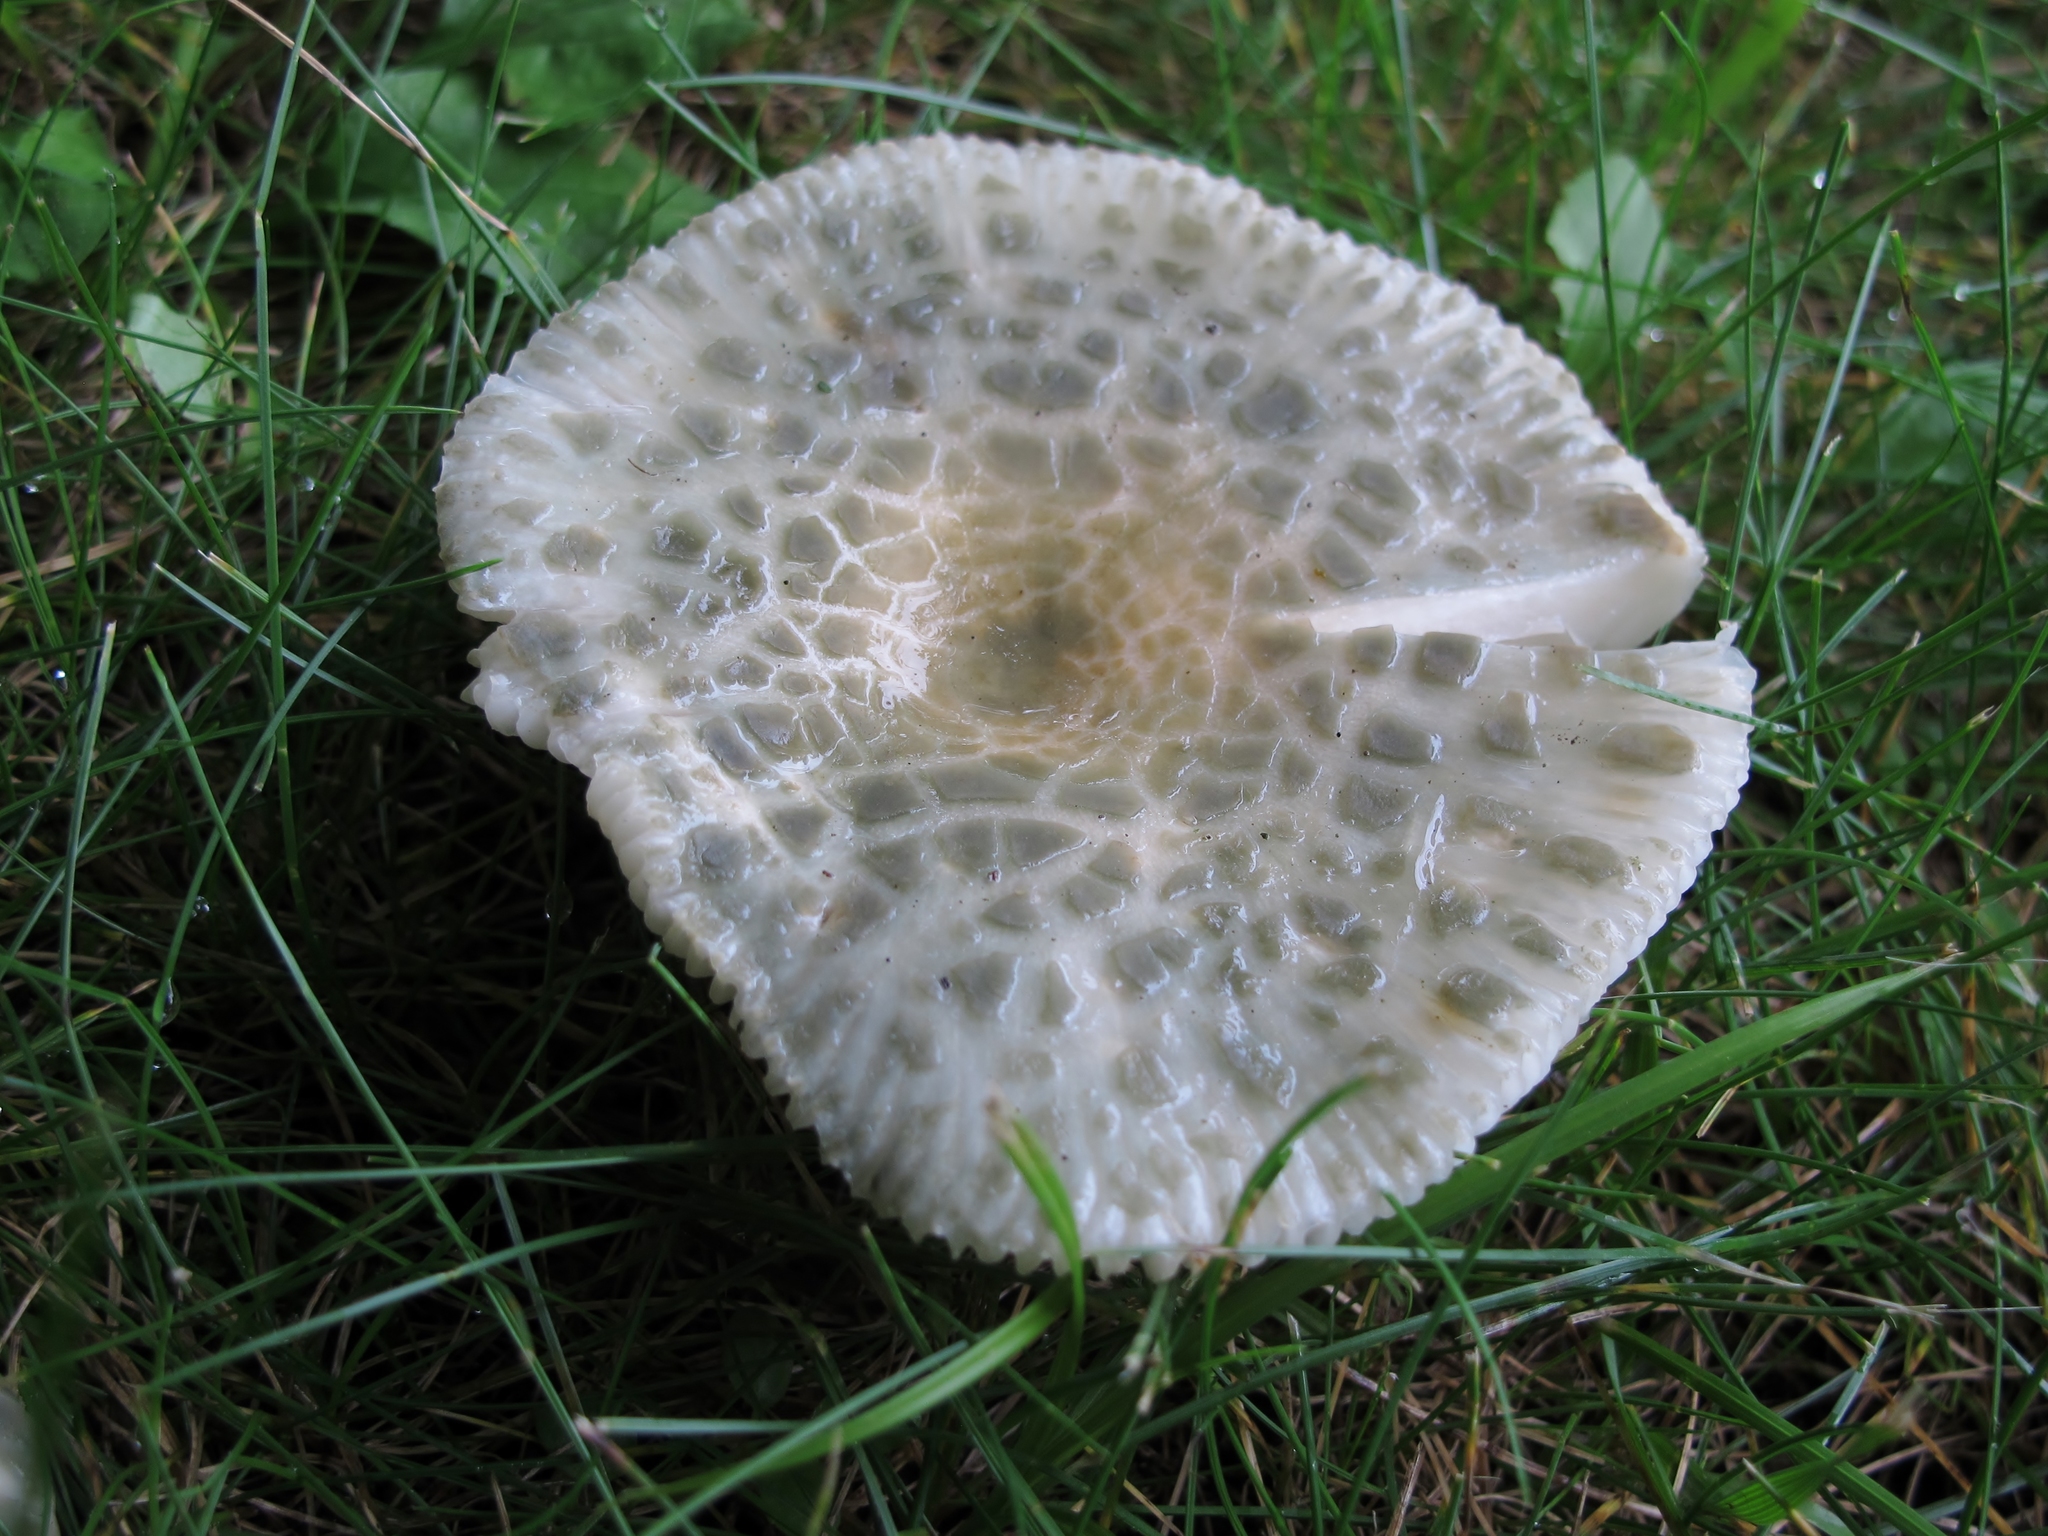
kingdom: Fungi
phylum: Basidiomycota
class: Agaricomycetes
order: Russulales
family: Russulaceae
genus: Russula
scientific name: Russula parvovirescens
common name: Blue-green cracking russula
